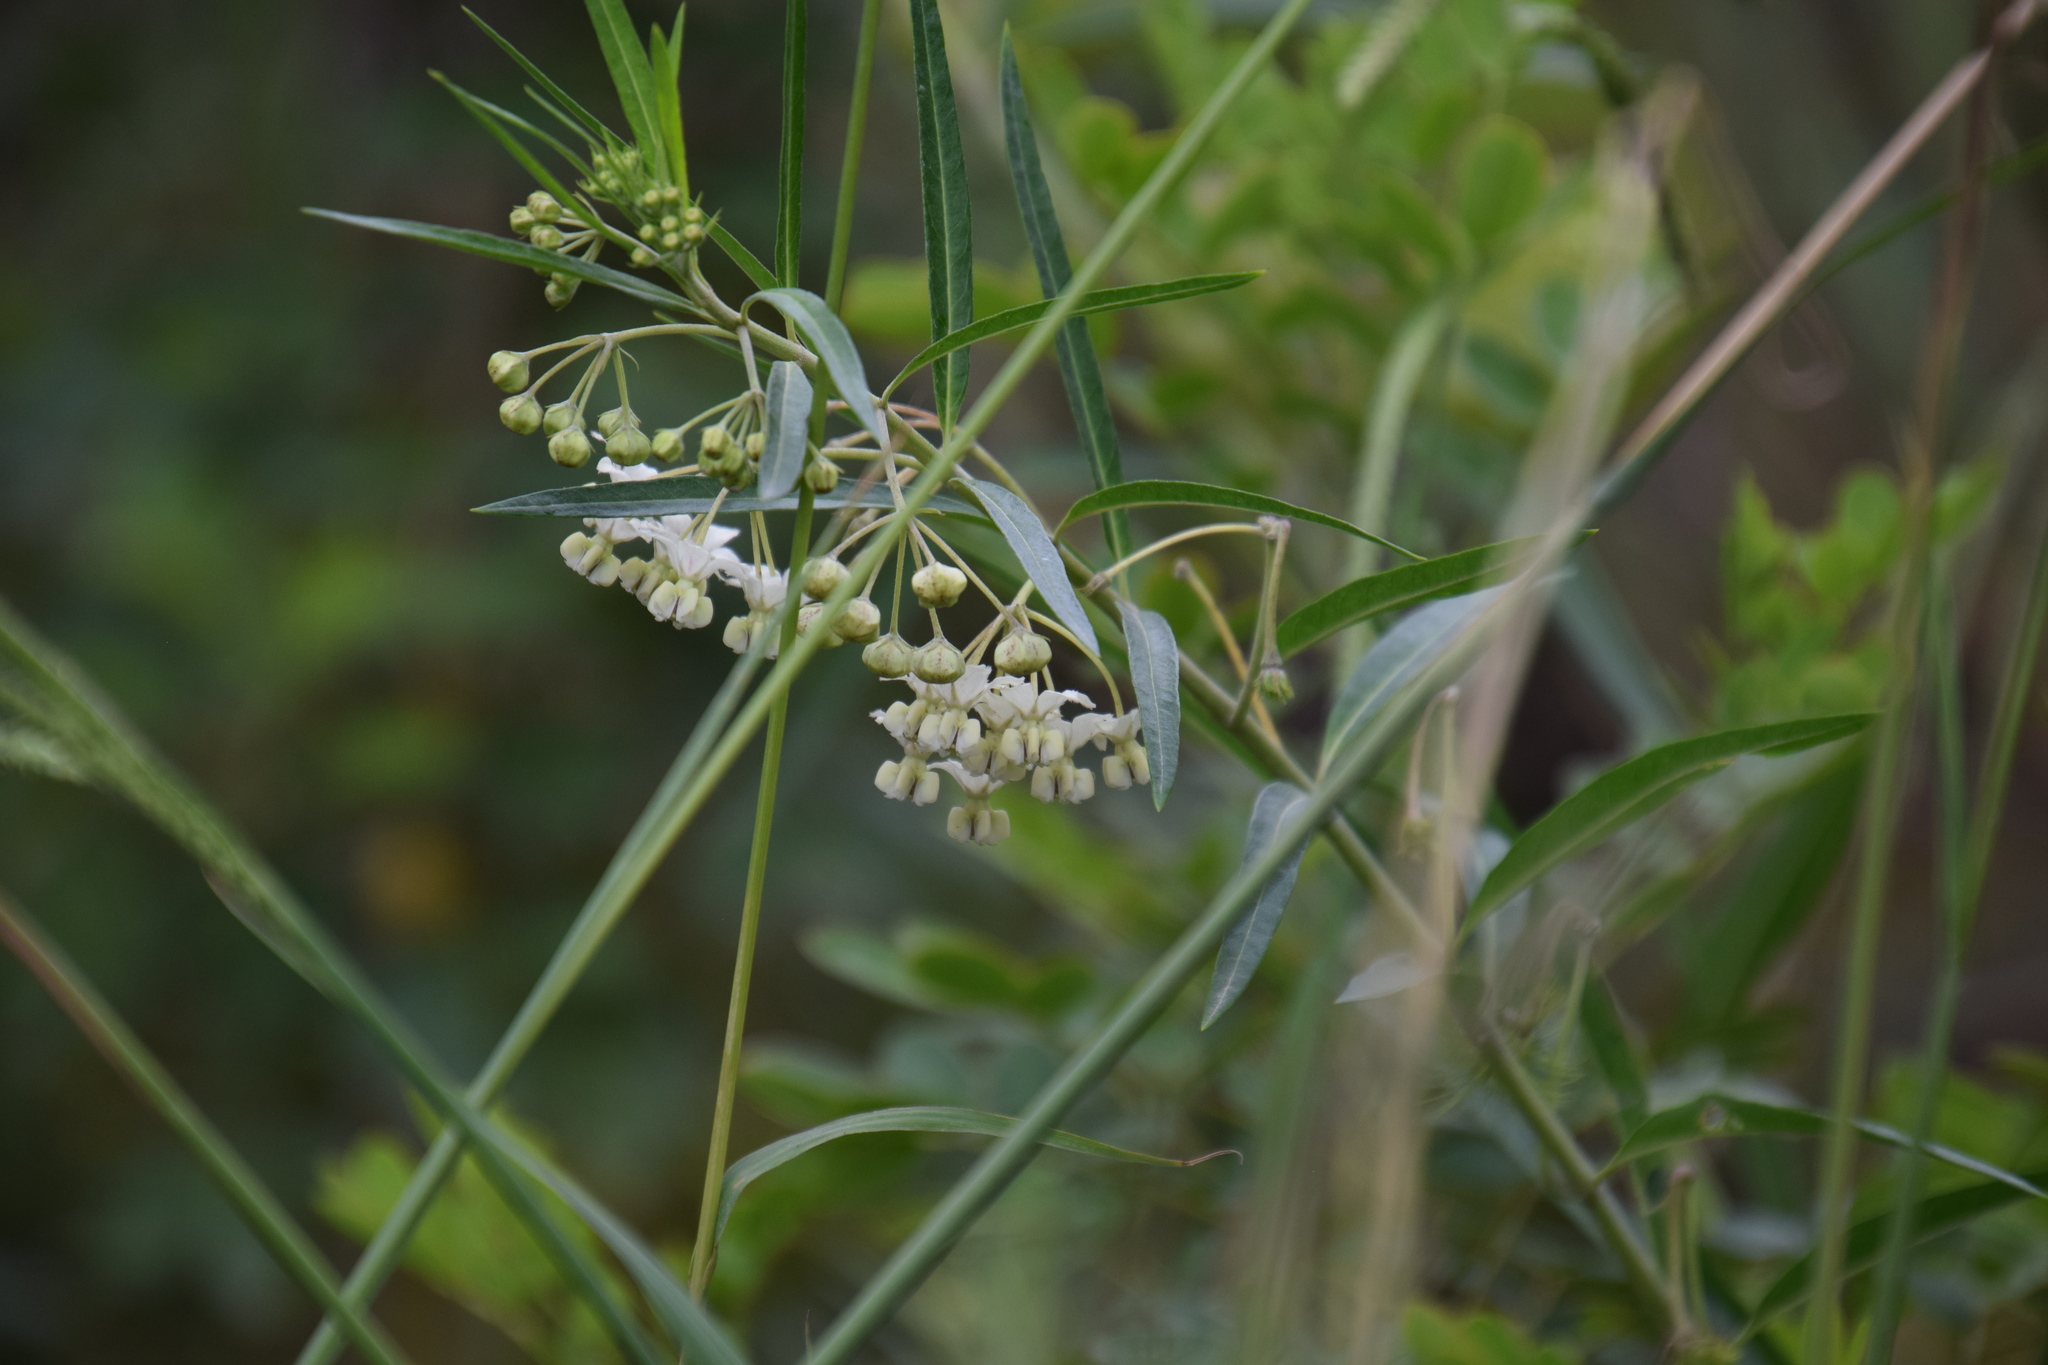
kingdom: Plantae
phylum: Tracheophyta
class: Magnoliopsida
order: Gentianales
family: Apocynaceae
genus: Gomphocarpus
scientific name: Gomphocarpus fruticosus
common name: Milkweed
